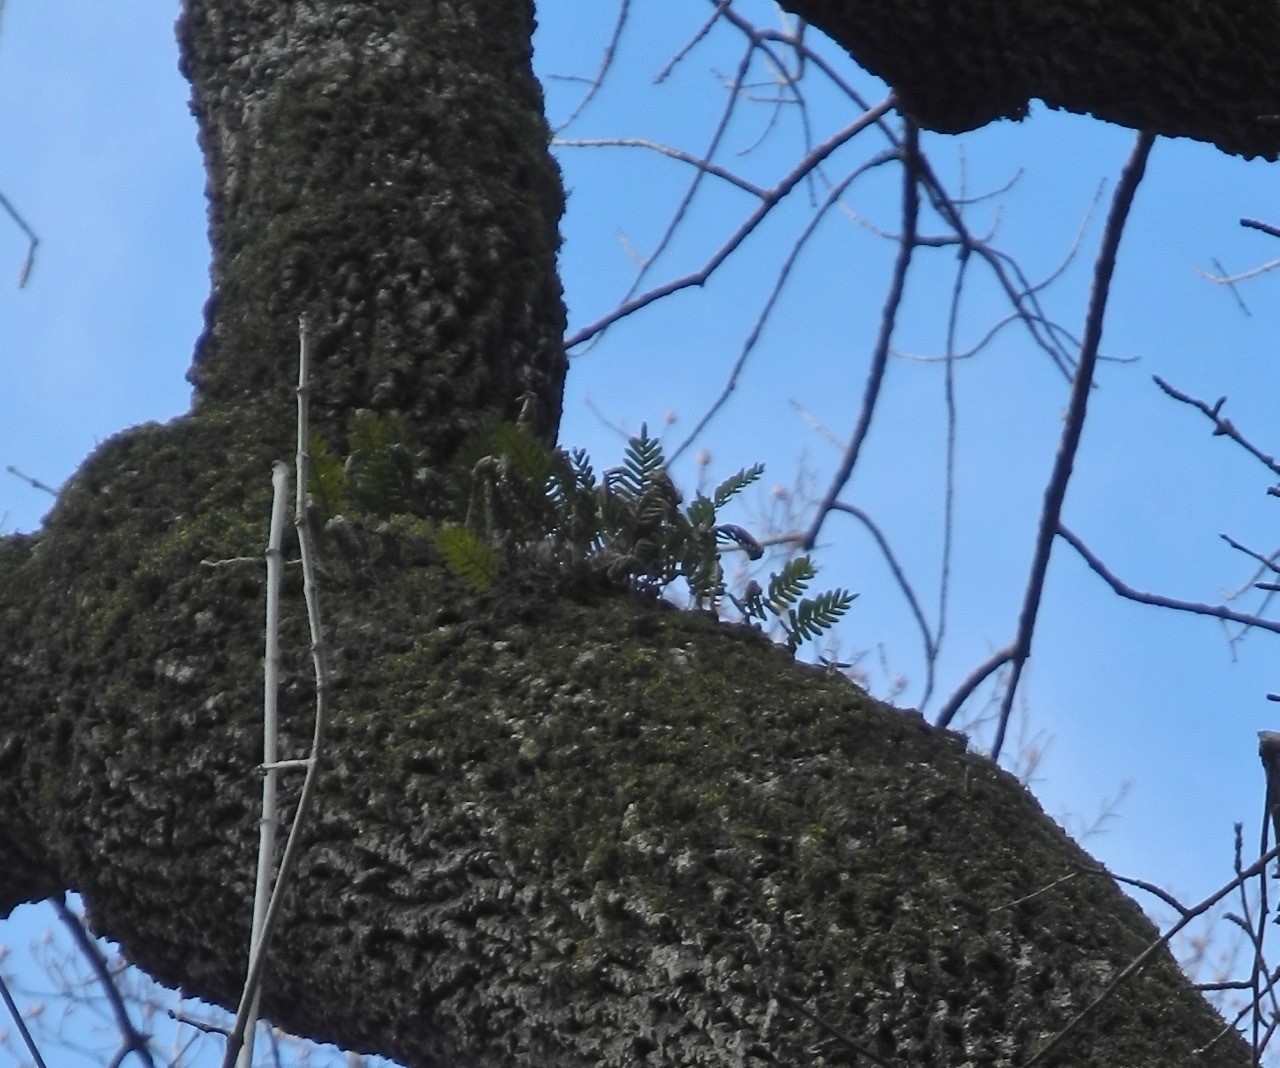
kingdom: Plantae
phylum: Tracheophyta
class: Polypodiopsida
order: Polypodiales
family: Polypodiaceae
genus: Pleopeltis
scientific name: Pleopeltis michauxiana
